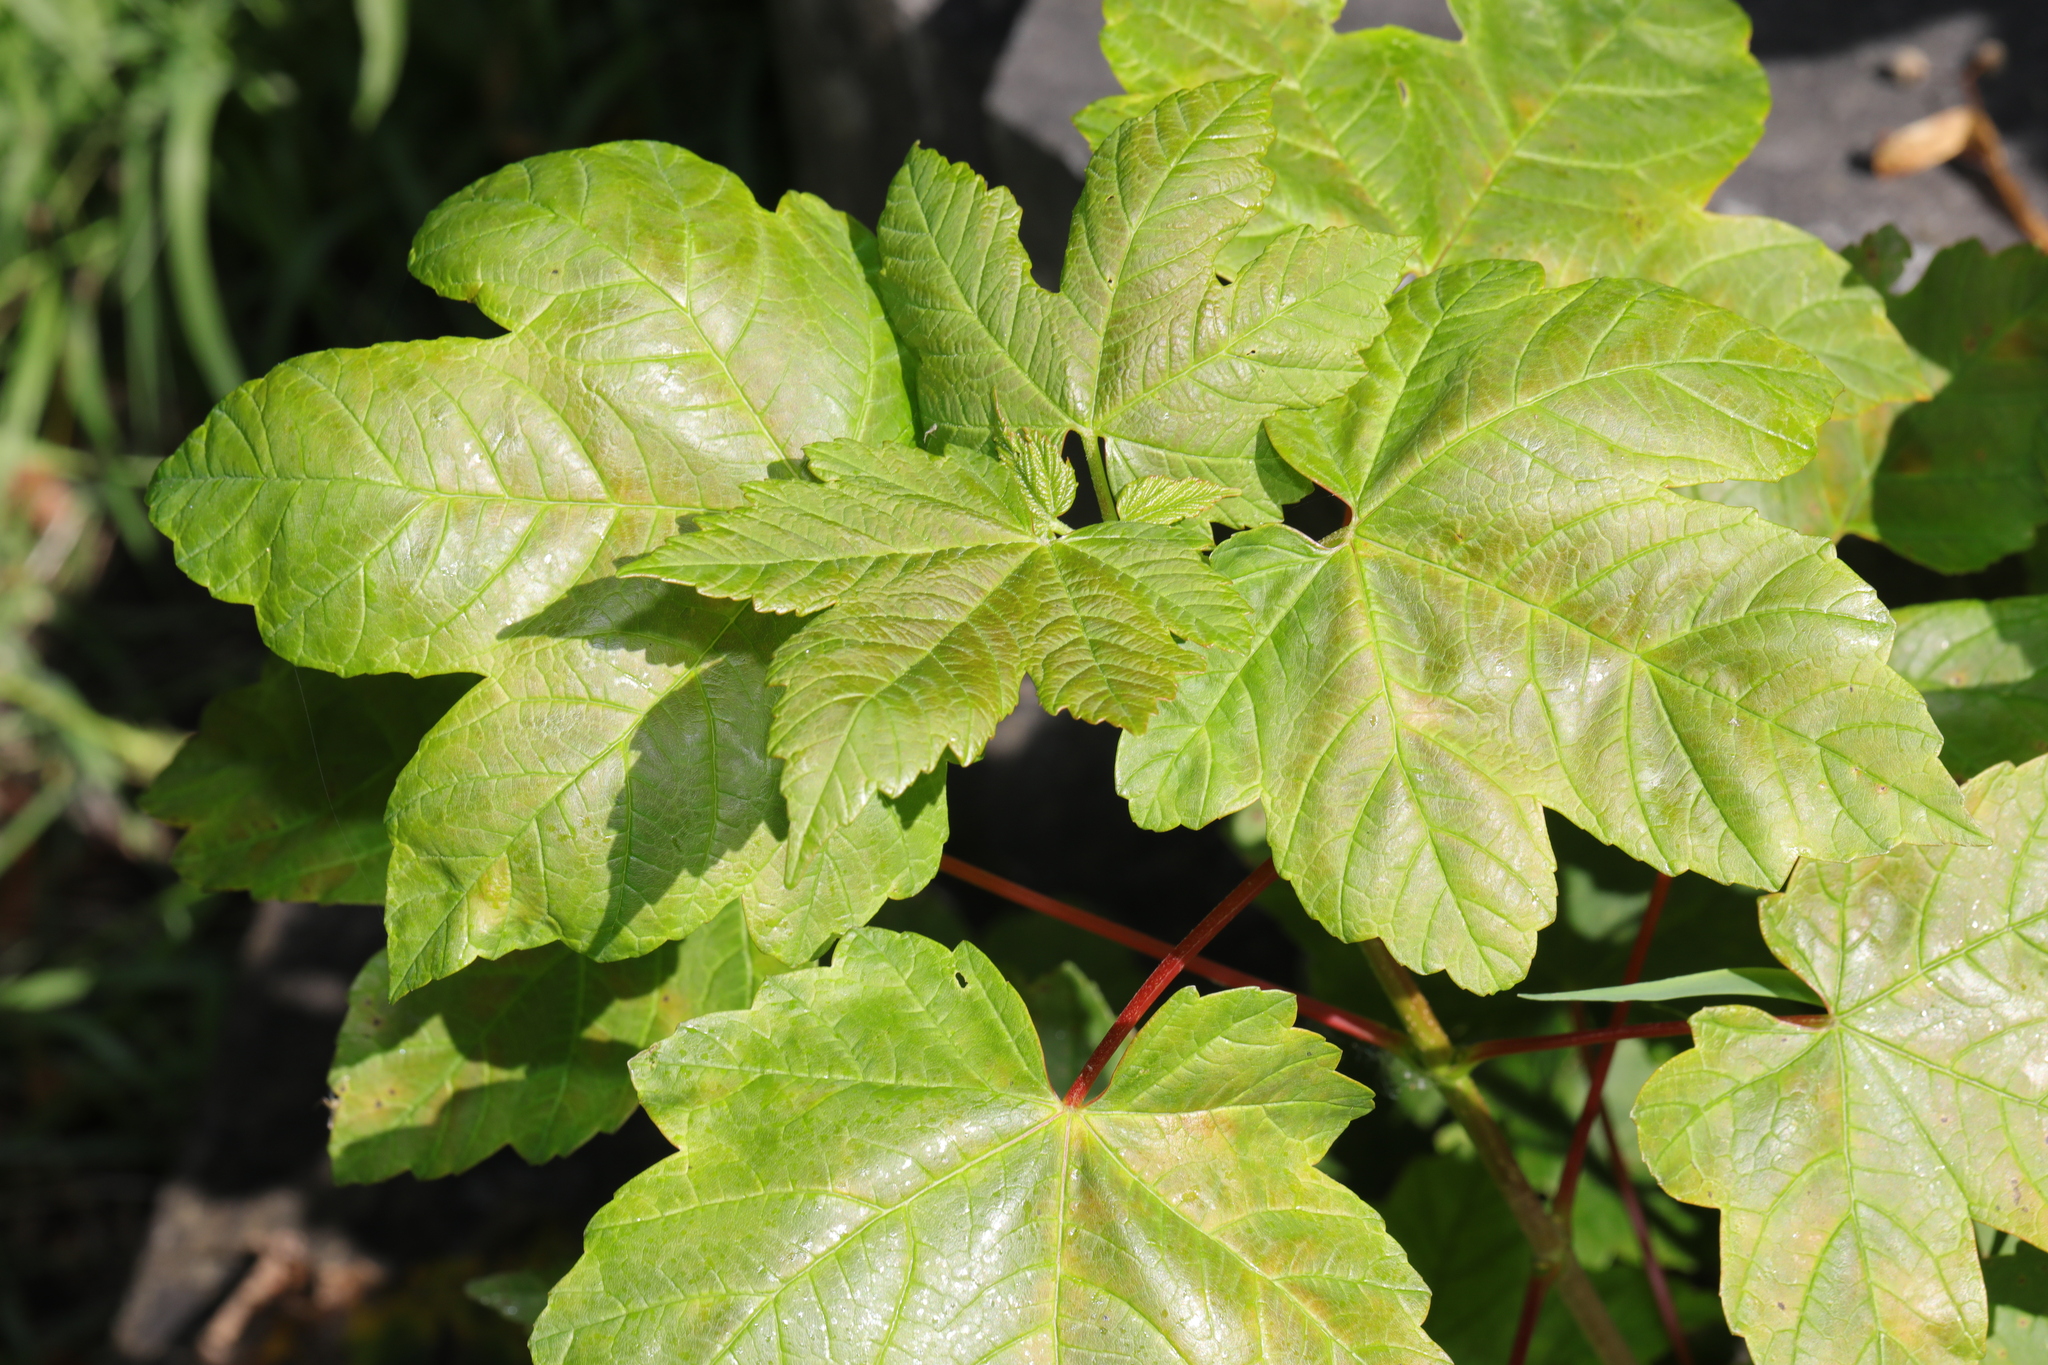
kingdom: Plantae
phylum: Tracheophyta
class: Magnoliopsida
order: Sapindales
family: Sapindaceae
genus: Acer
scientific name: Acer pseudoplatanus
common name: Sycamore
